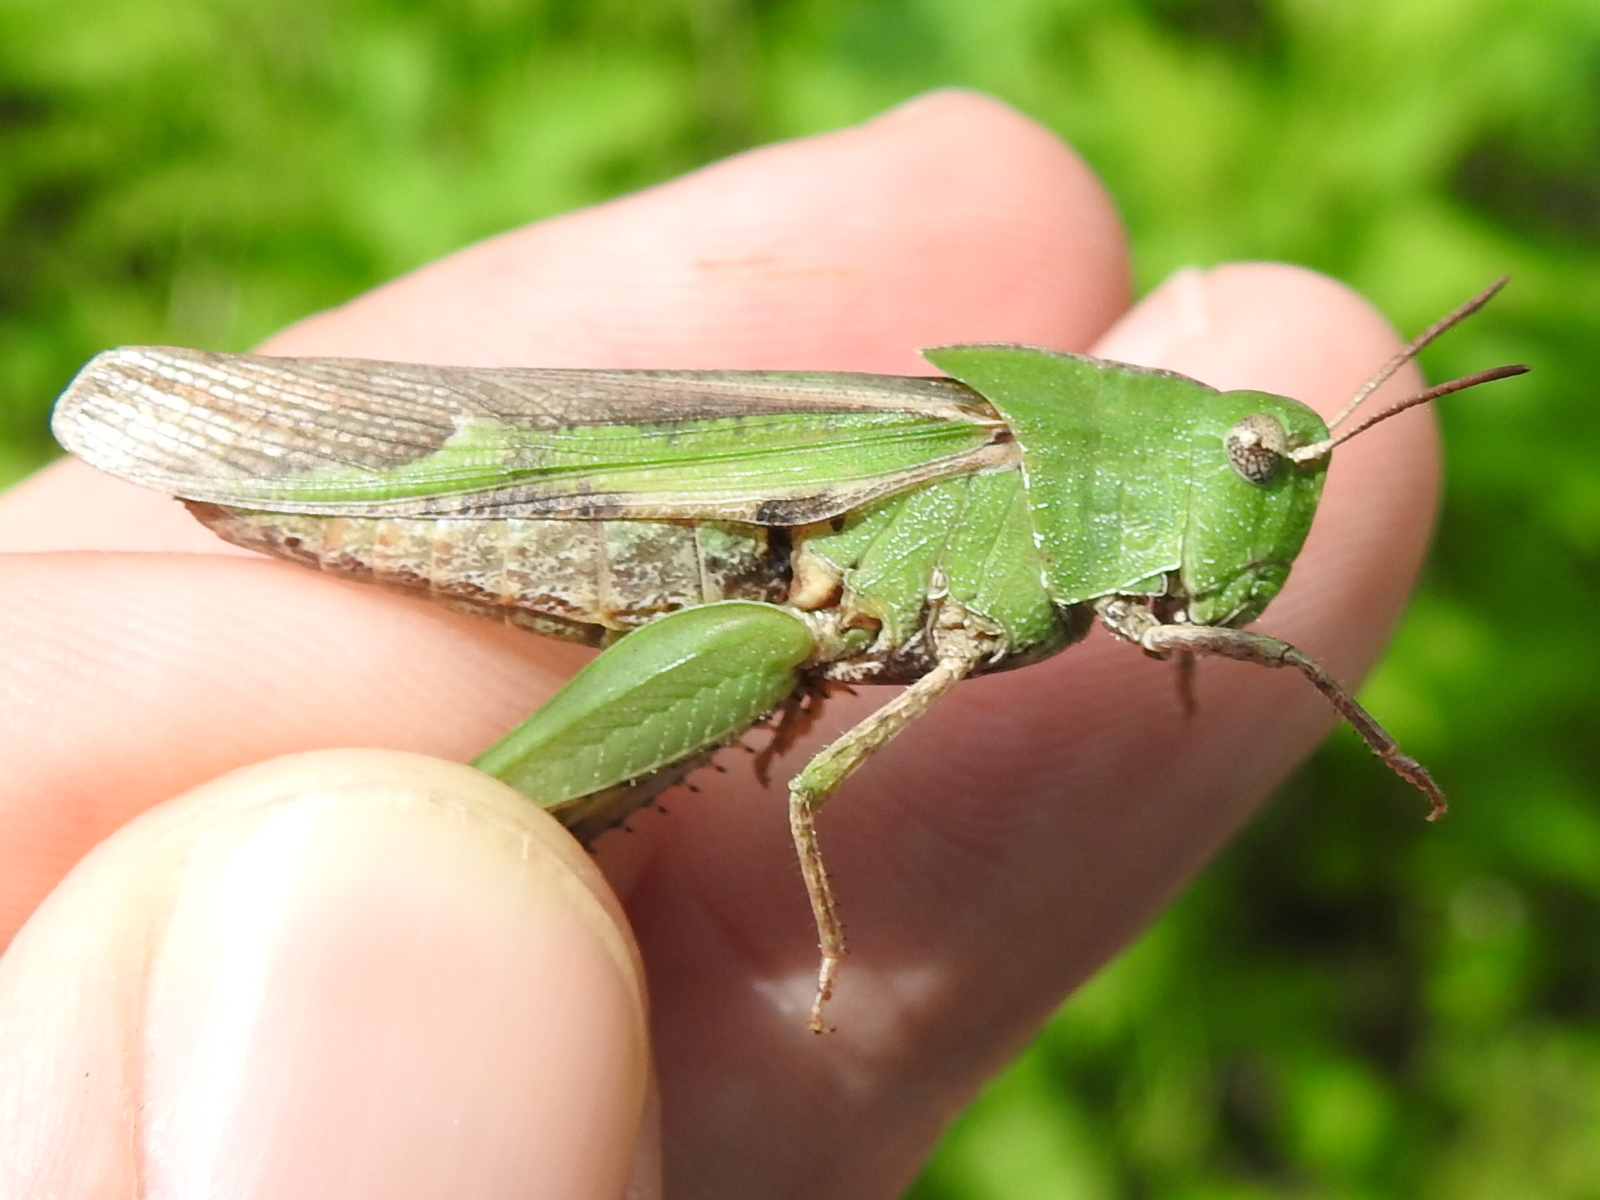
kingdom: Animalia
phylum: Arthropoda
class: Insecta
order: Orthoptera
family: Acrididae
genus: Chortophaga
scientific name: Chortophaga viridifasciata
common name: Green-striped grasshopper
